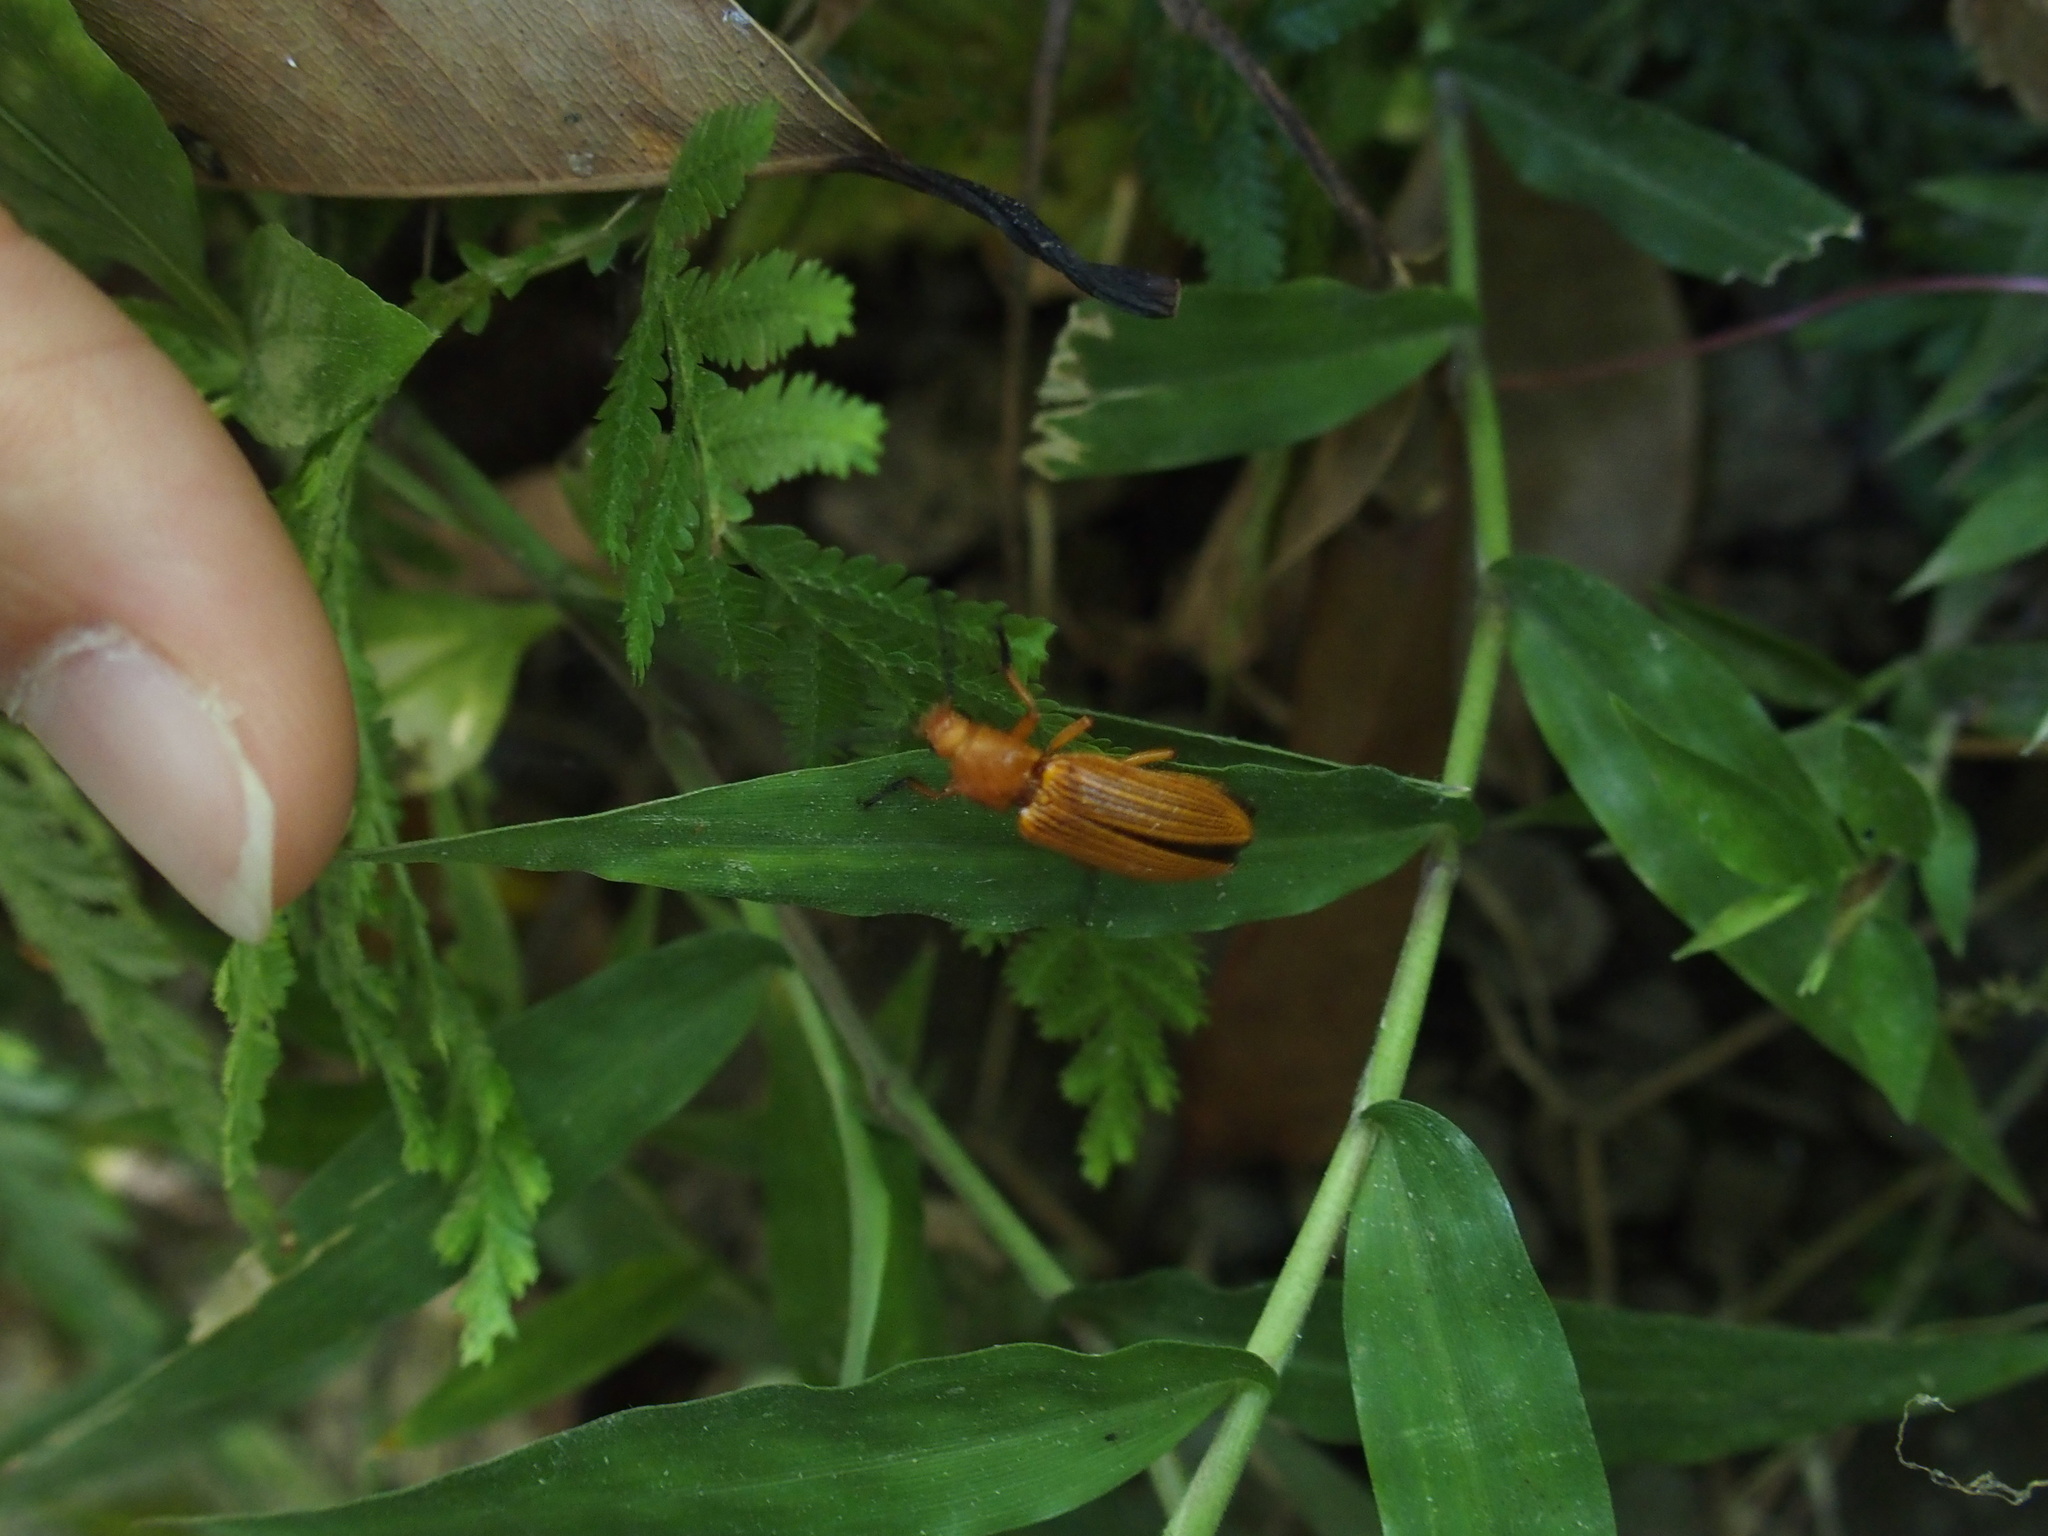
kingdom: Animalia
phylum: Arthropoda
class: Insecta
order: Coleoptera
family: Elateridae
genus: Hemiops
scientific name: Hemiops flava
